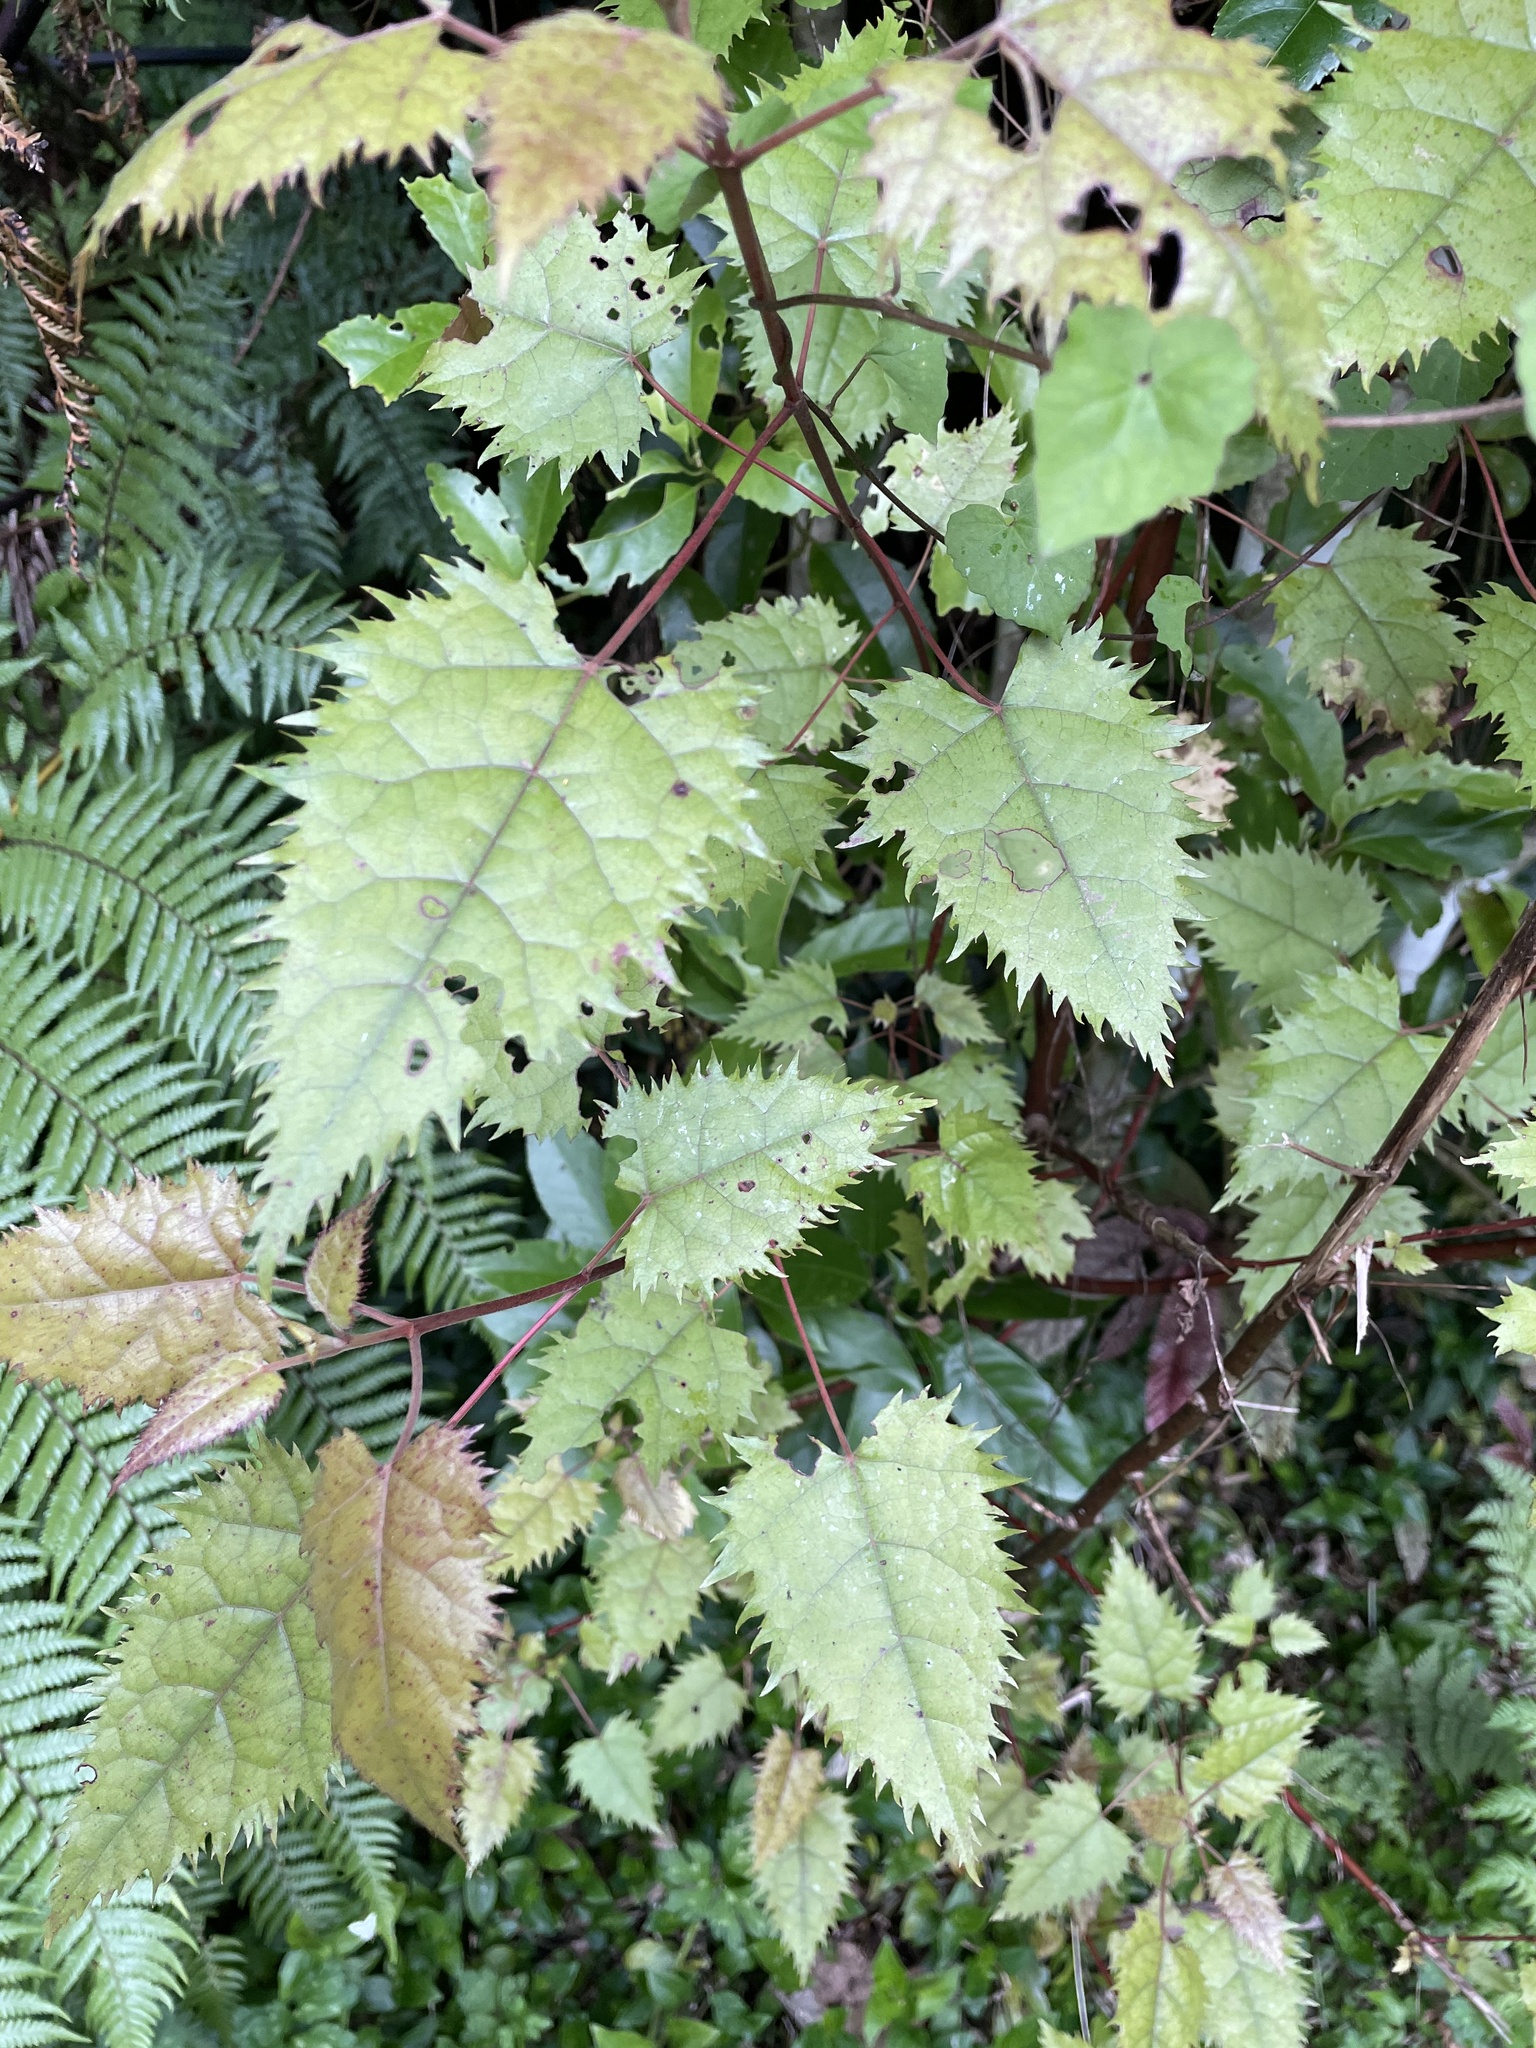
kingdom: Plantae
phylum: Tracheophyta
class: Magnoliopsida
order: Oxalidales
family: Elaeocarpaceae
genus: Aristotelia
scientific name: Aristotelia serrata
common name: New zealand wineberry
